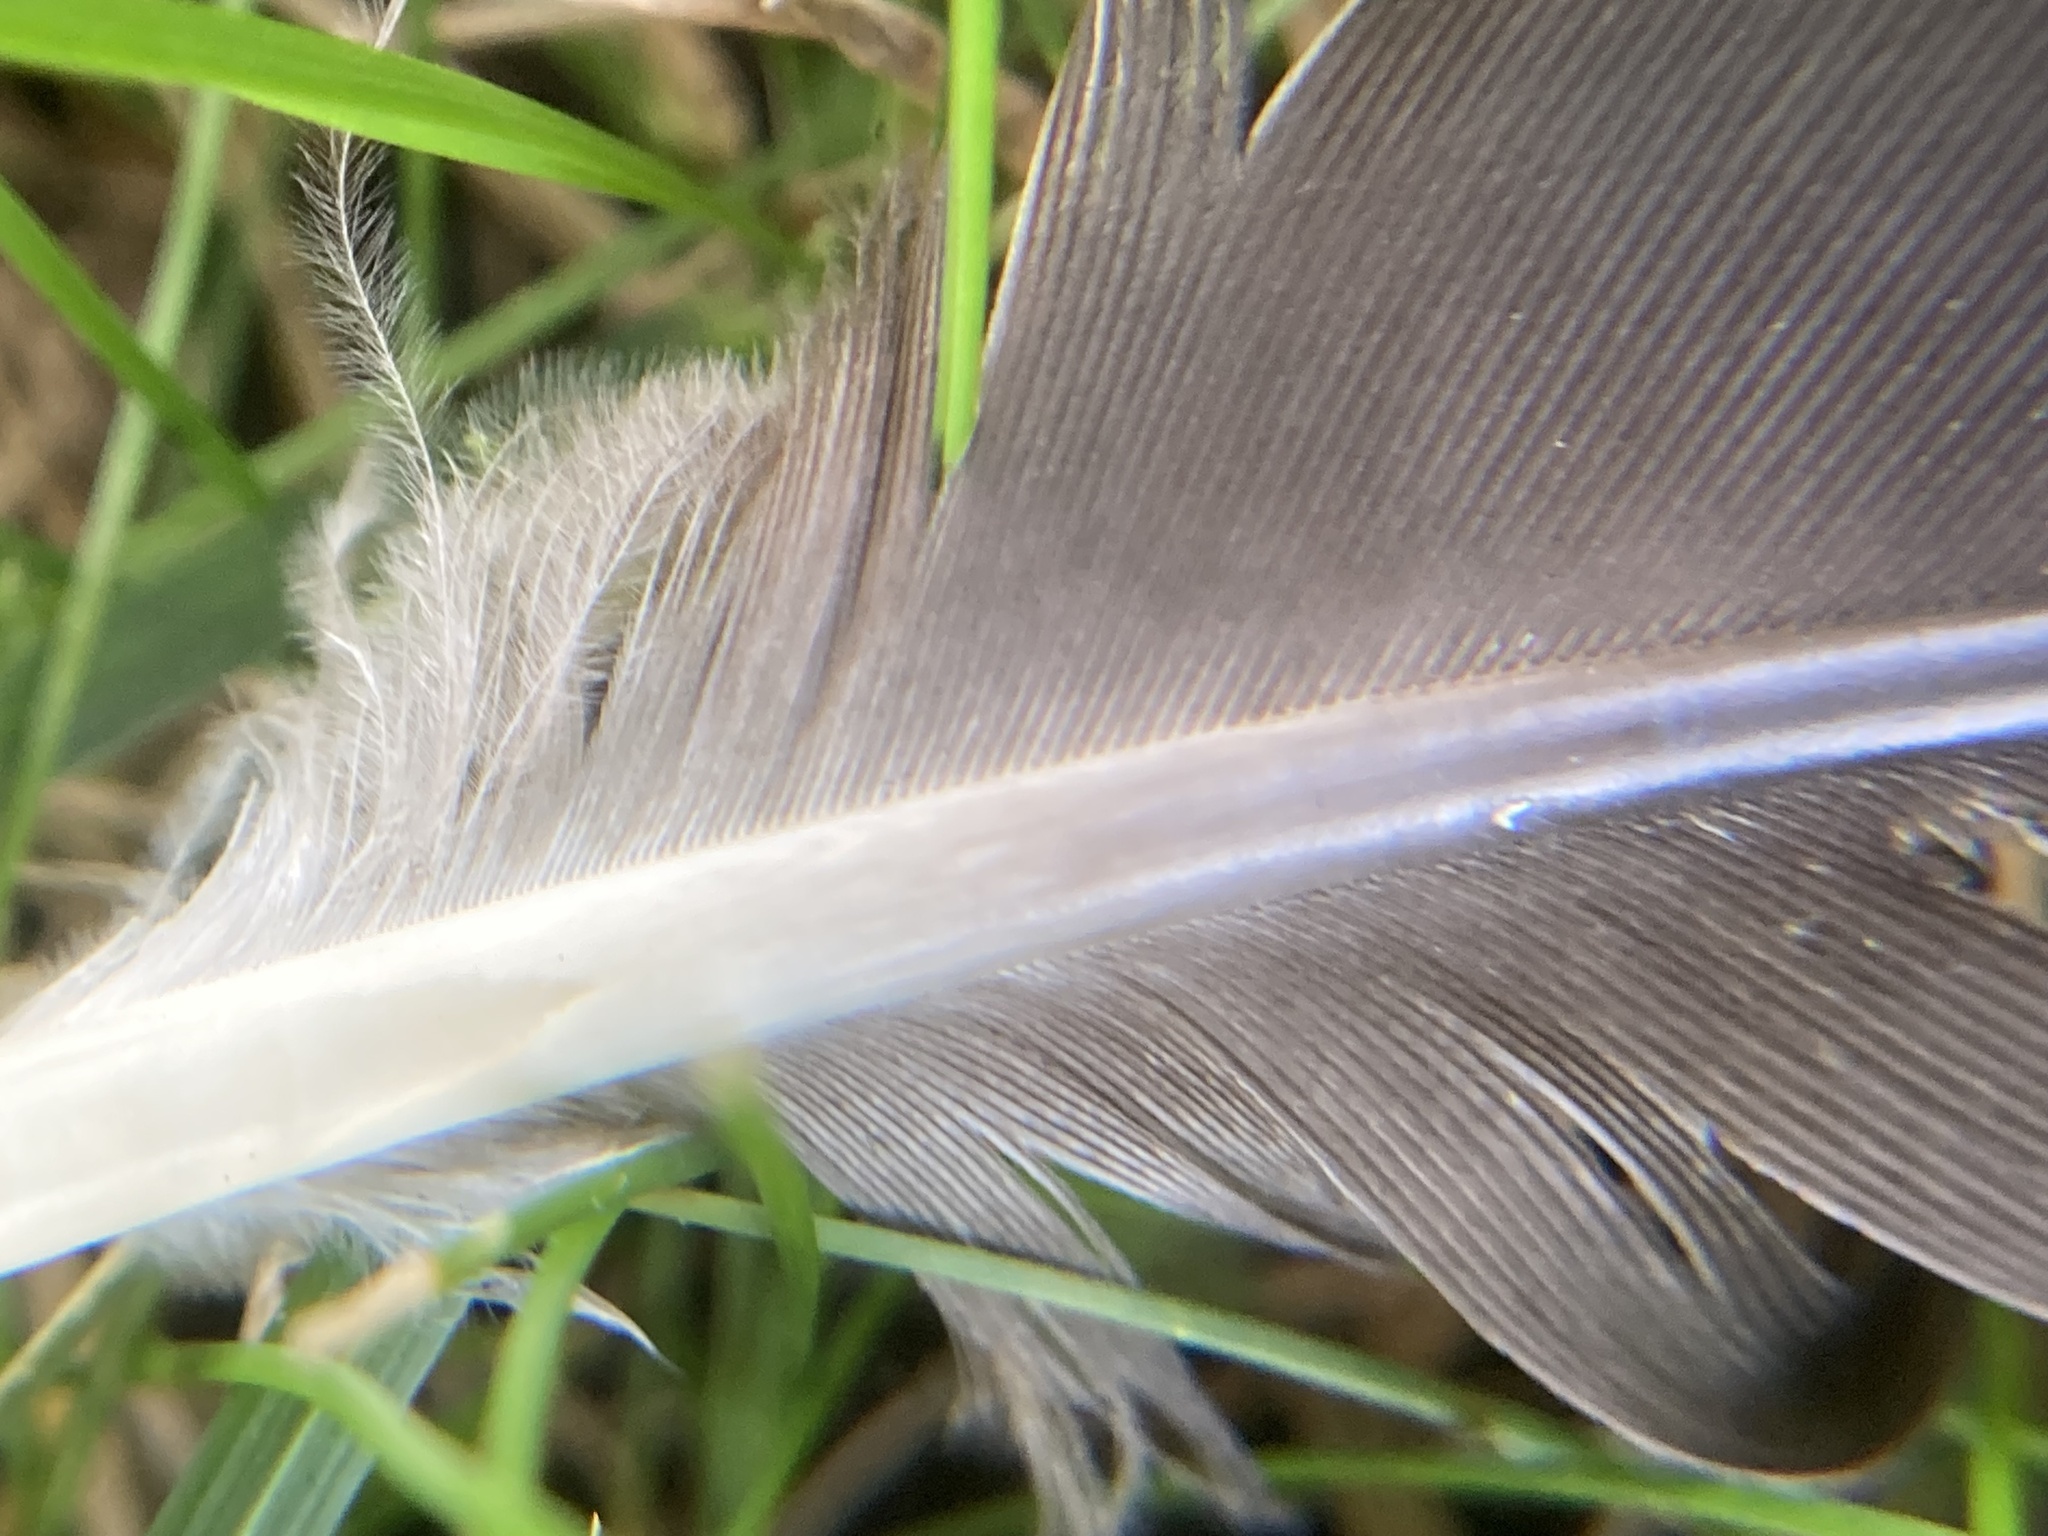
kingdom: Animalia
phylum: Chordata
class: Aves
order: Anseriformes
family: Anatidae
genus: Branta
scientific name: Branta canadensis
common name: Canada goose
